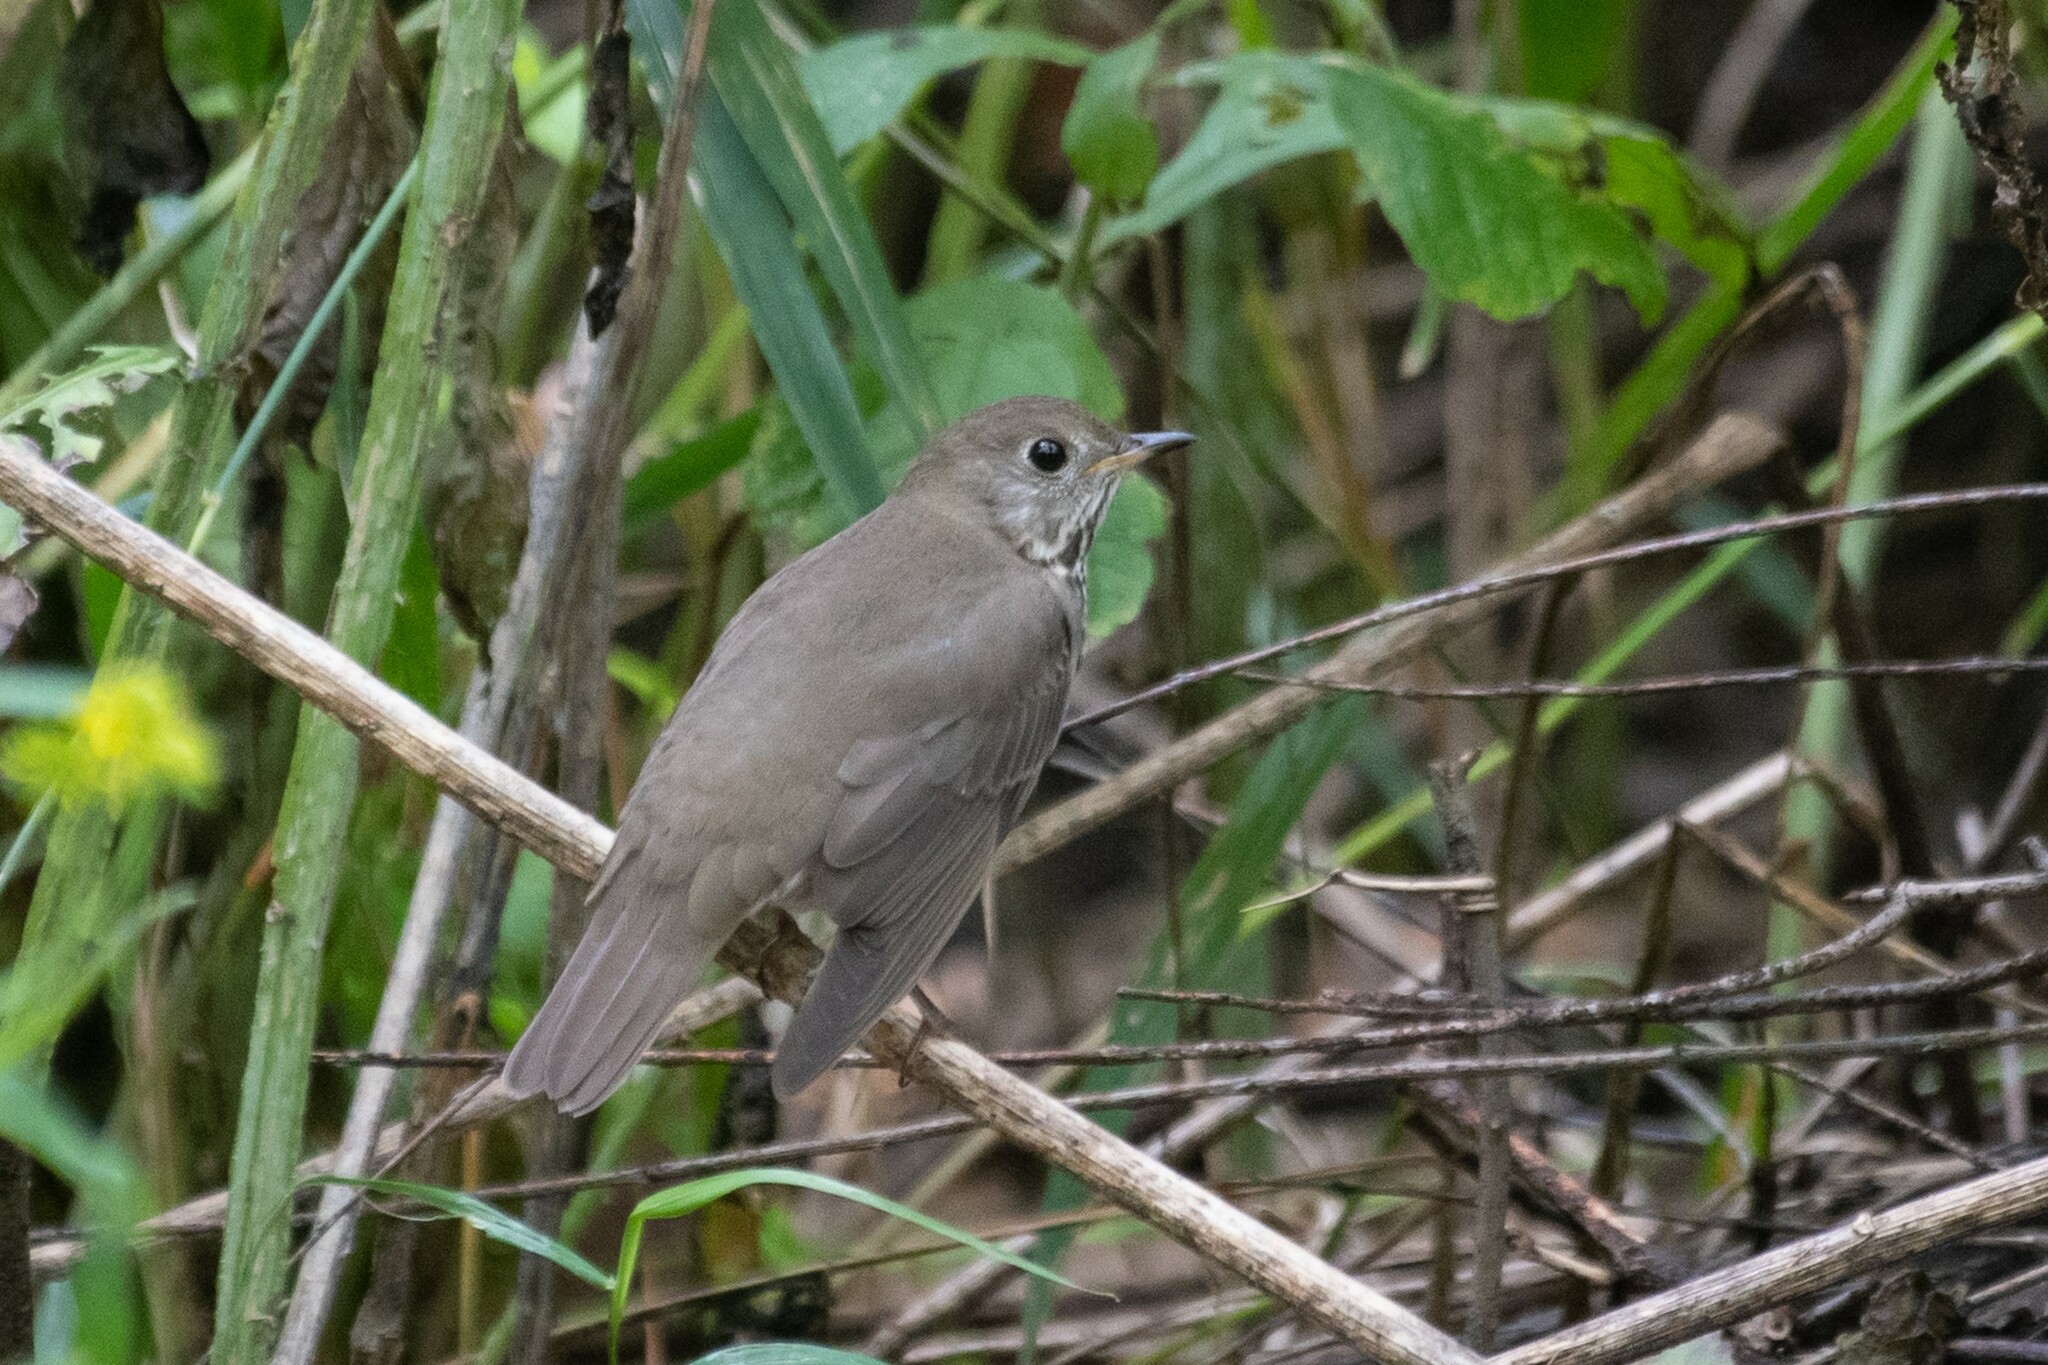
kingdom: Animalia
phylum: Chordata
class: Aves
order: Passeriformes
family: Turdidae
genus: Catharus
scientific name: Catharus minimus
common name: Grey-cheeked thrush
